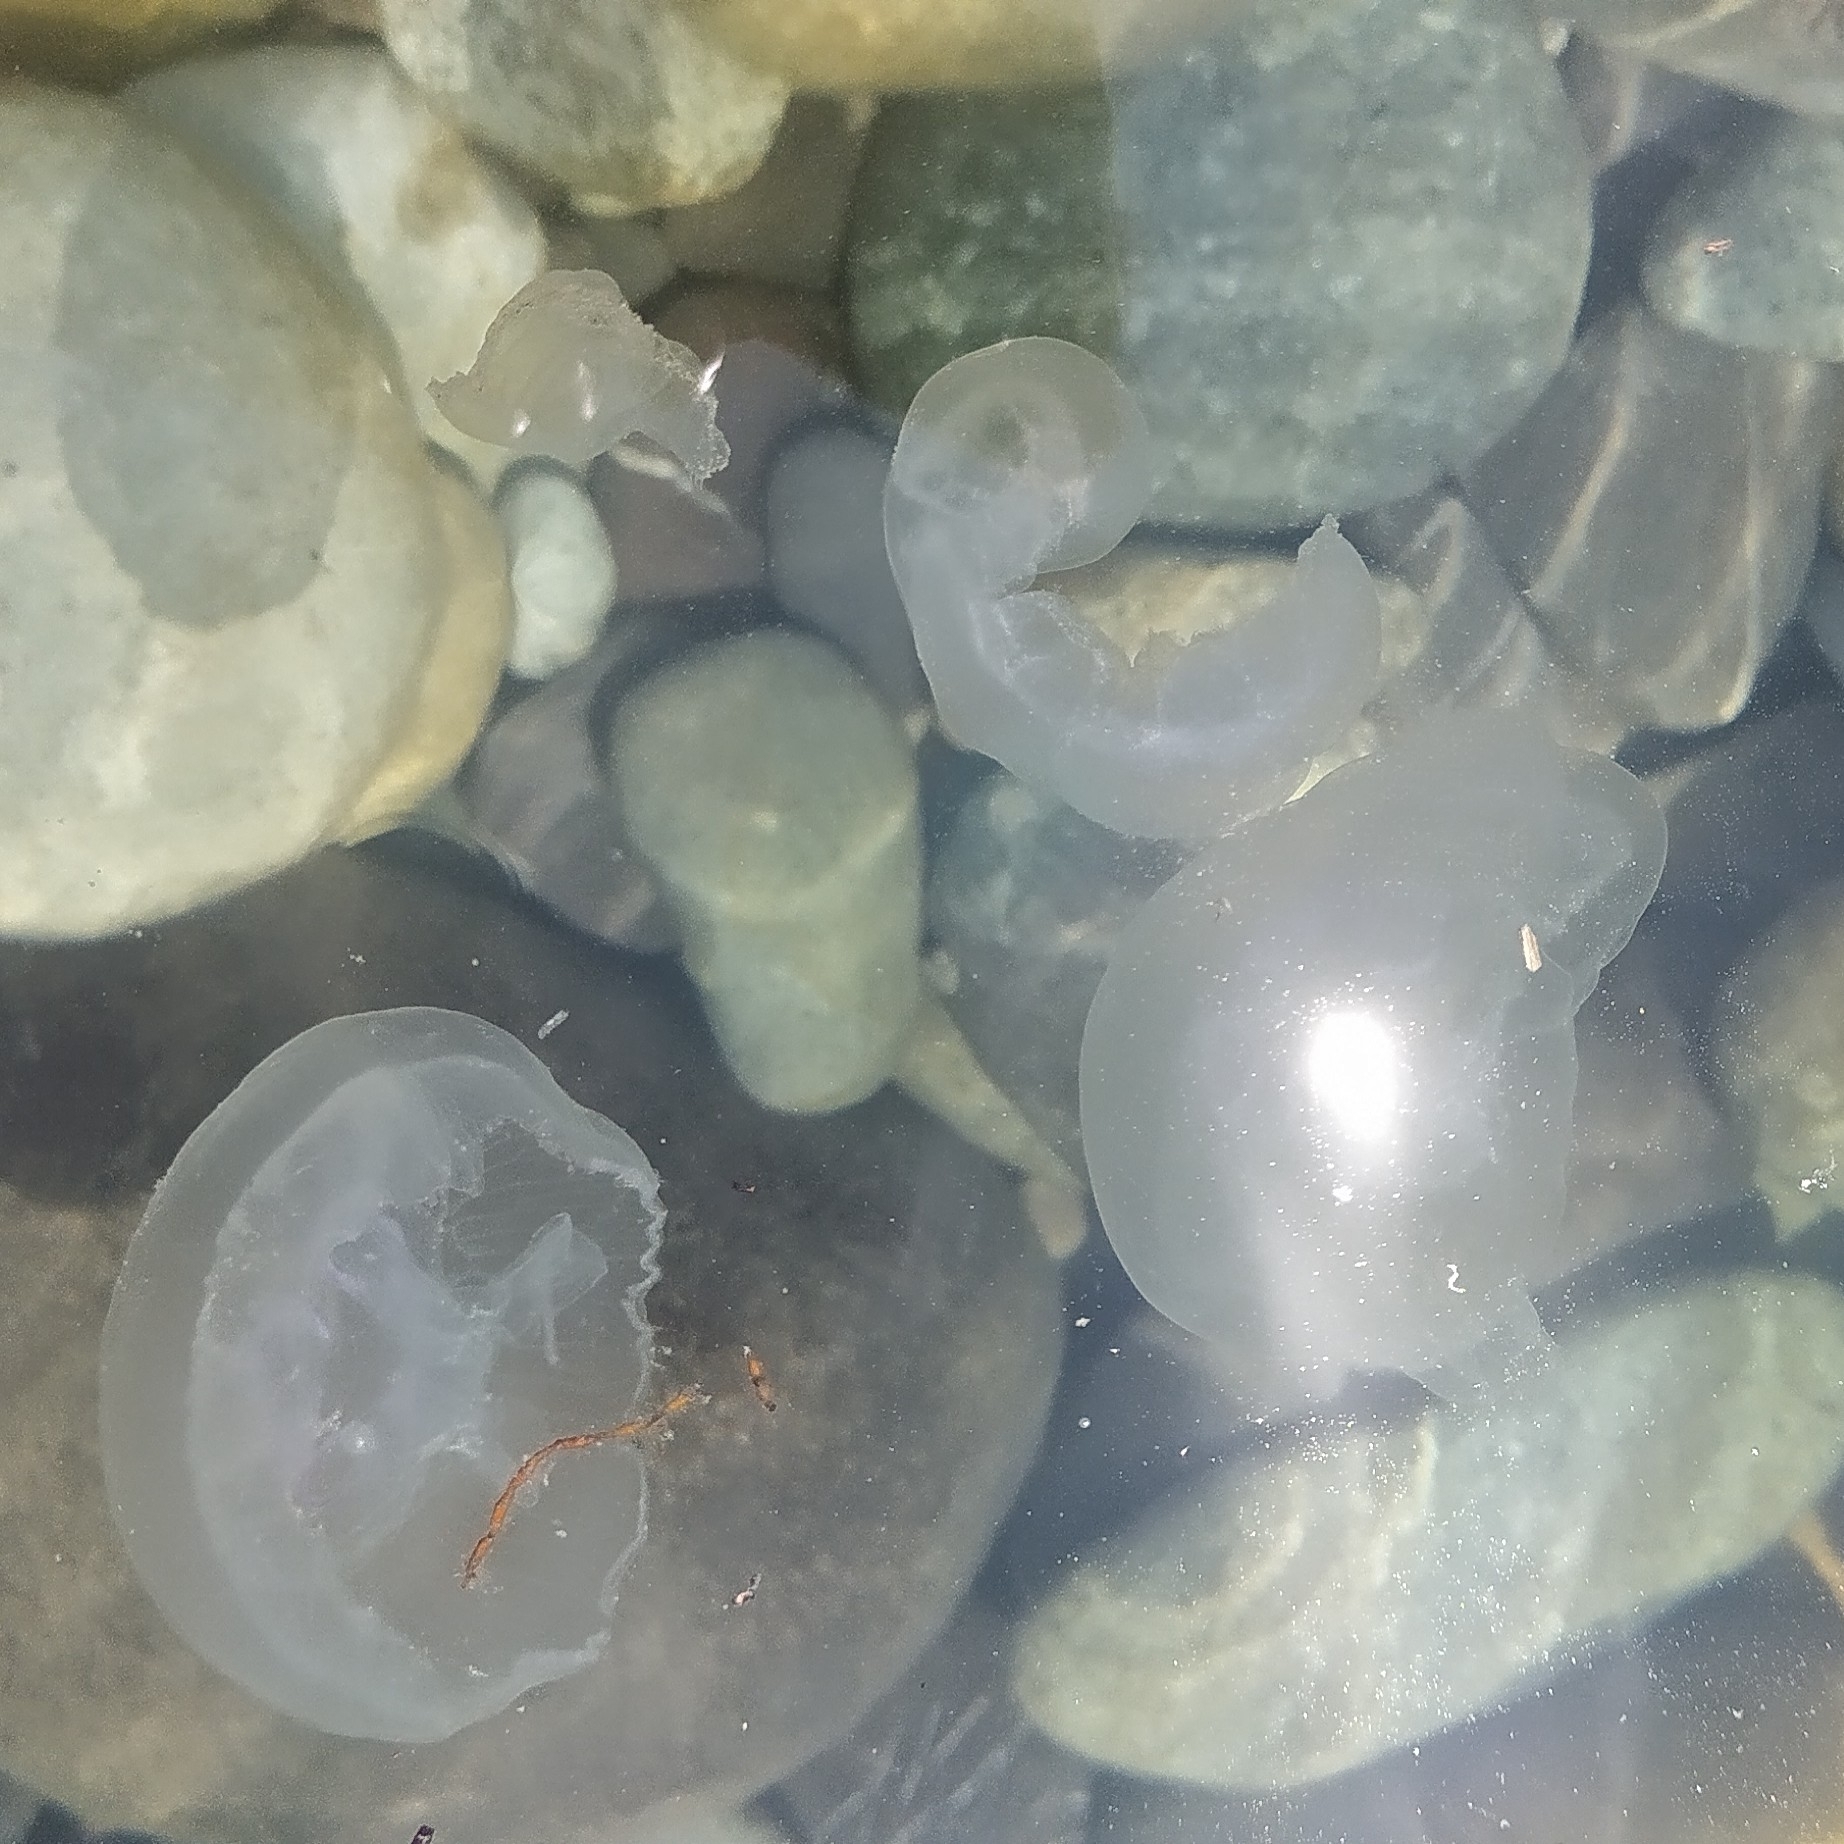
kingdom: Animalia
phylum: Cnidaria
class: Scyphozoa
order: Semaeostomeae
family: Ulmaridae
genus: Aurelia
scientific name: Aurelia aurita
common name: Moon jellyfish
